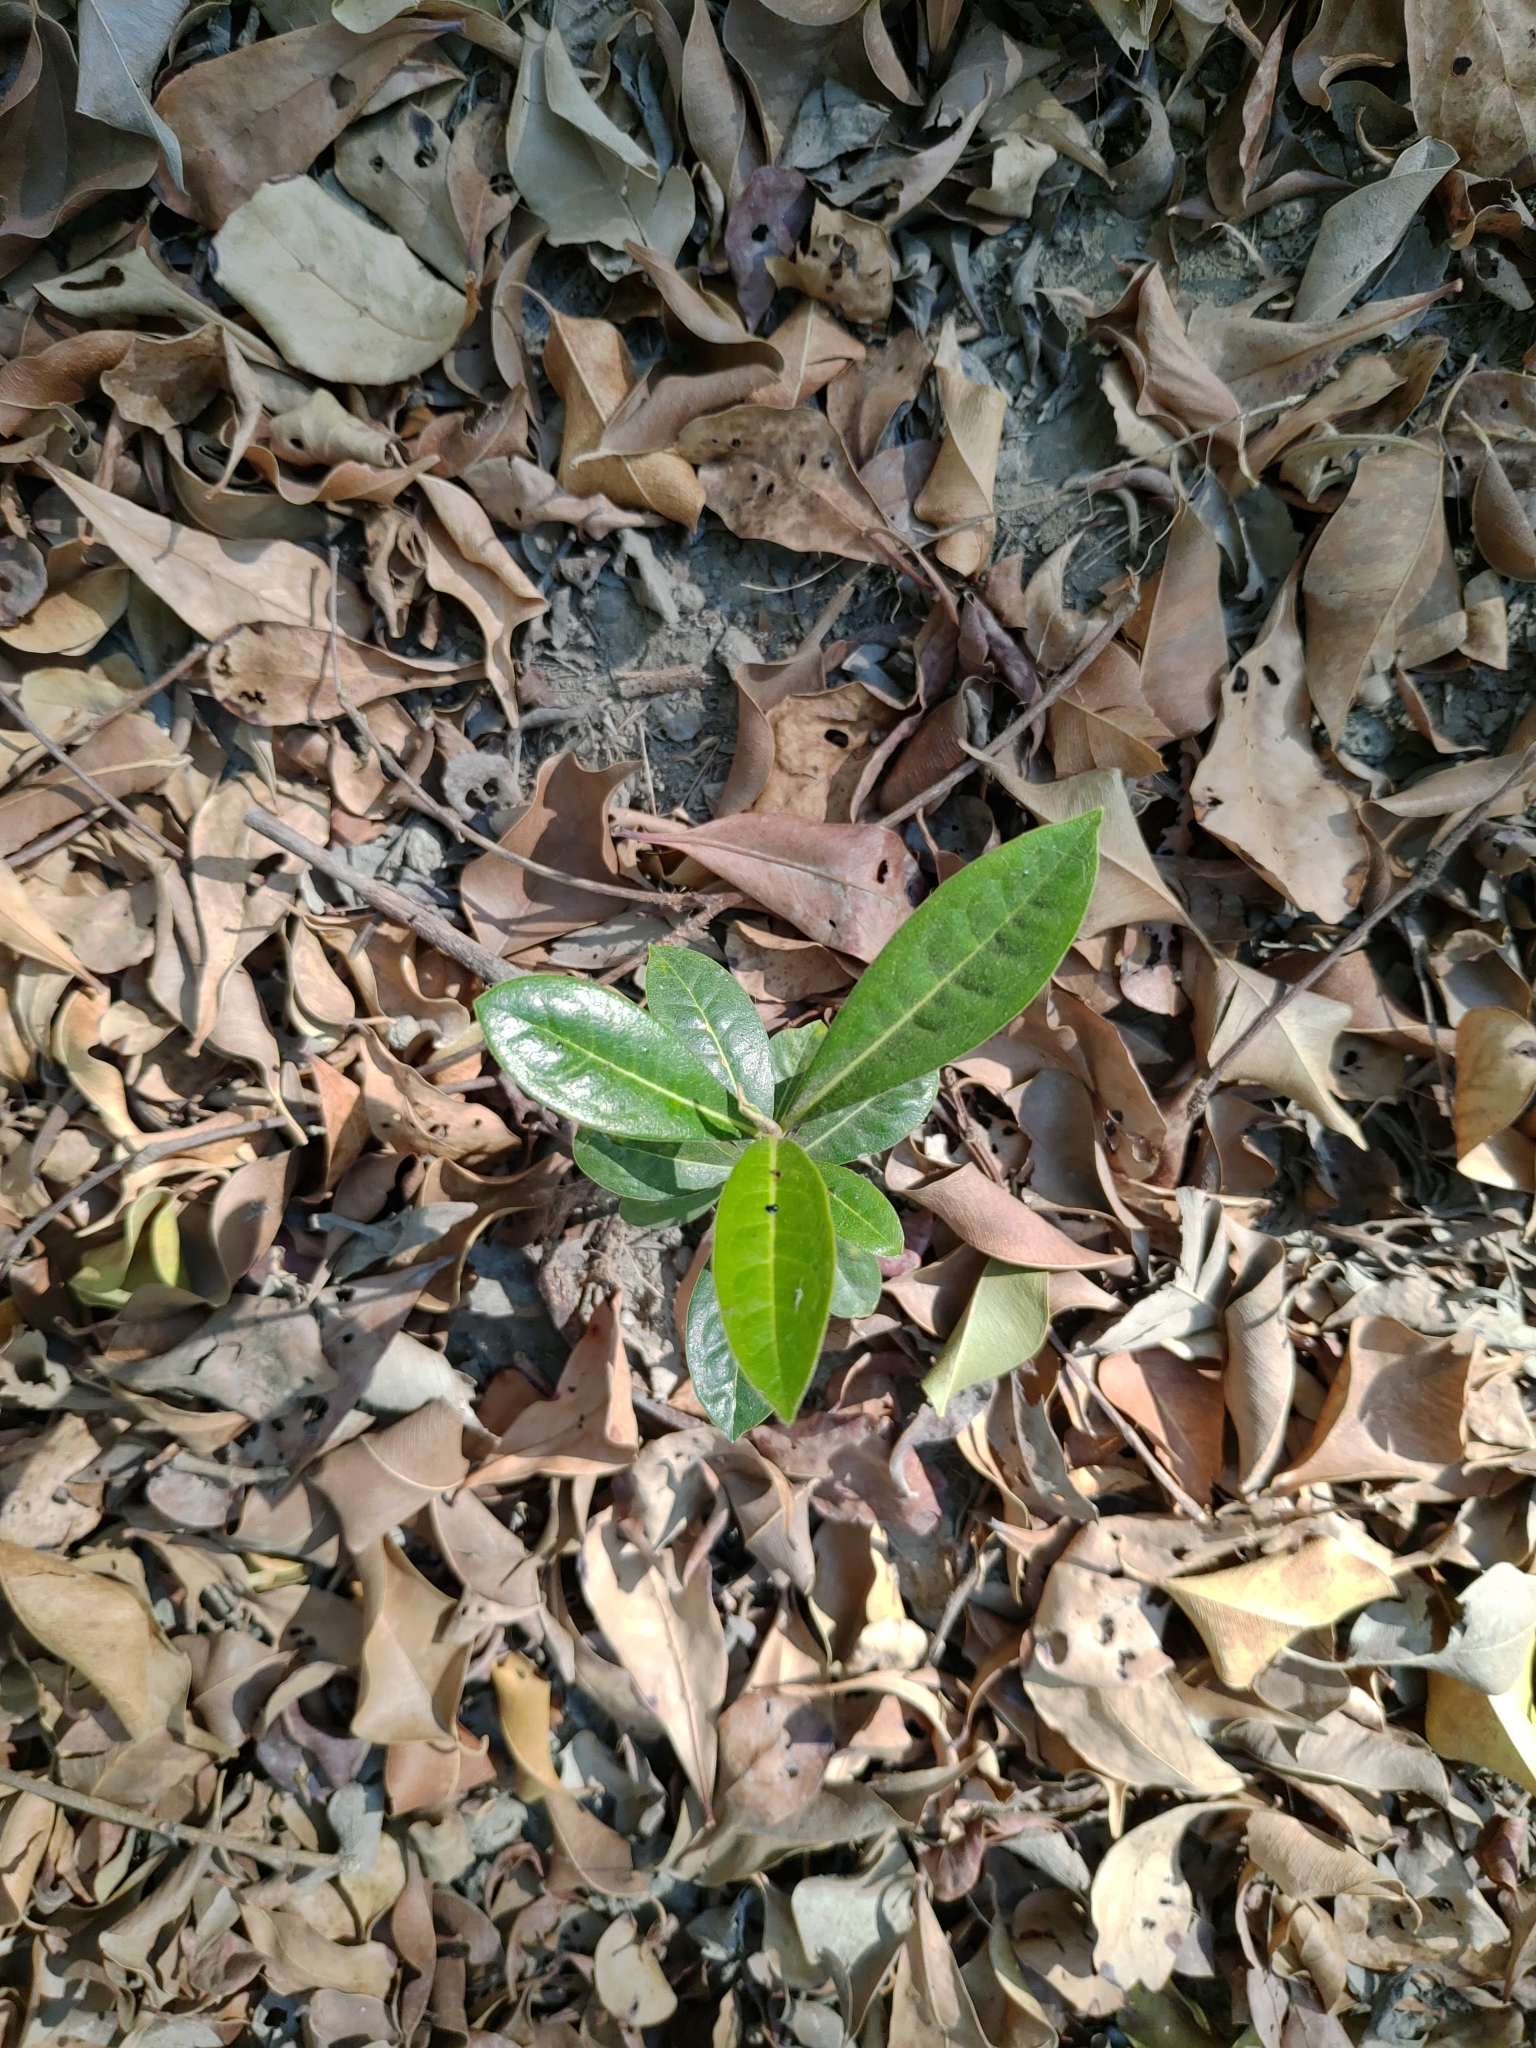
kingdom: Plantae
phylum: Tracheophyta
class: Magnoliopsida
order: Apiales
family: Pittosporaceae
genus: Pittosporum
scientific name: Pittosporum pentandrum
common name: Taiwanese cheesewood
